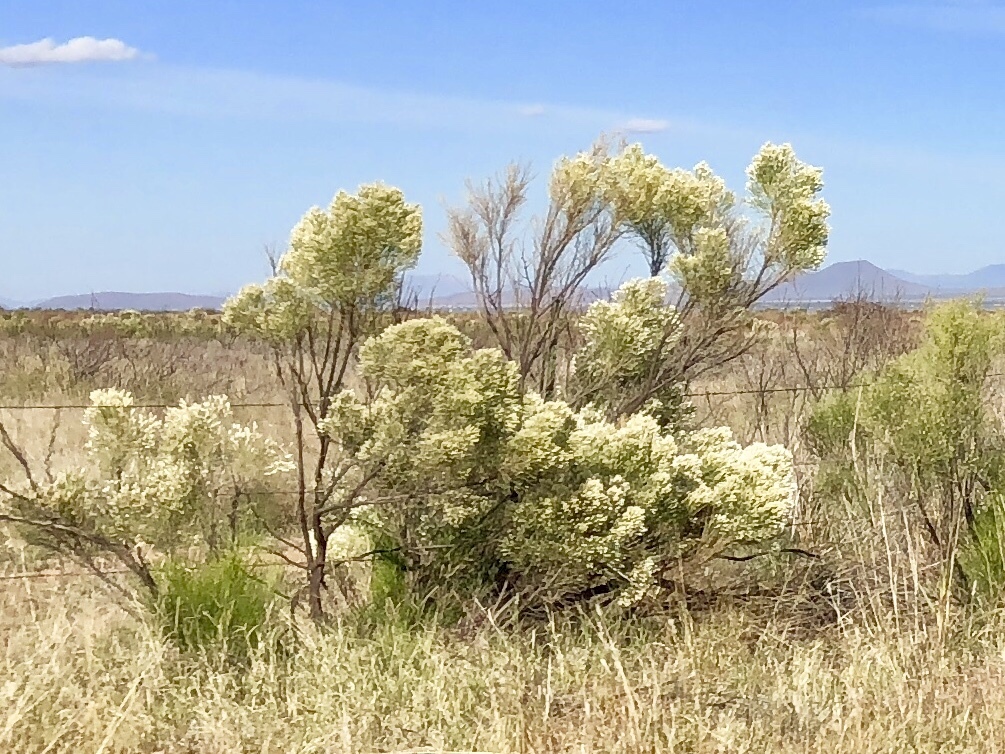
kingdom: Plantae
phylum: Tracheophyta
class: Magnoliopsida
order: Asterales
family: Asteraceae
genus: Baccharis
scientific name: Baccharis sarothroides
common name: Desert-broom
